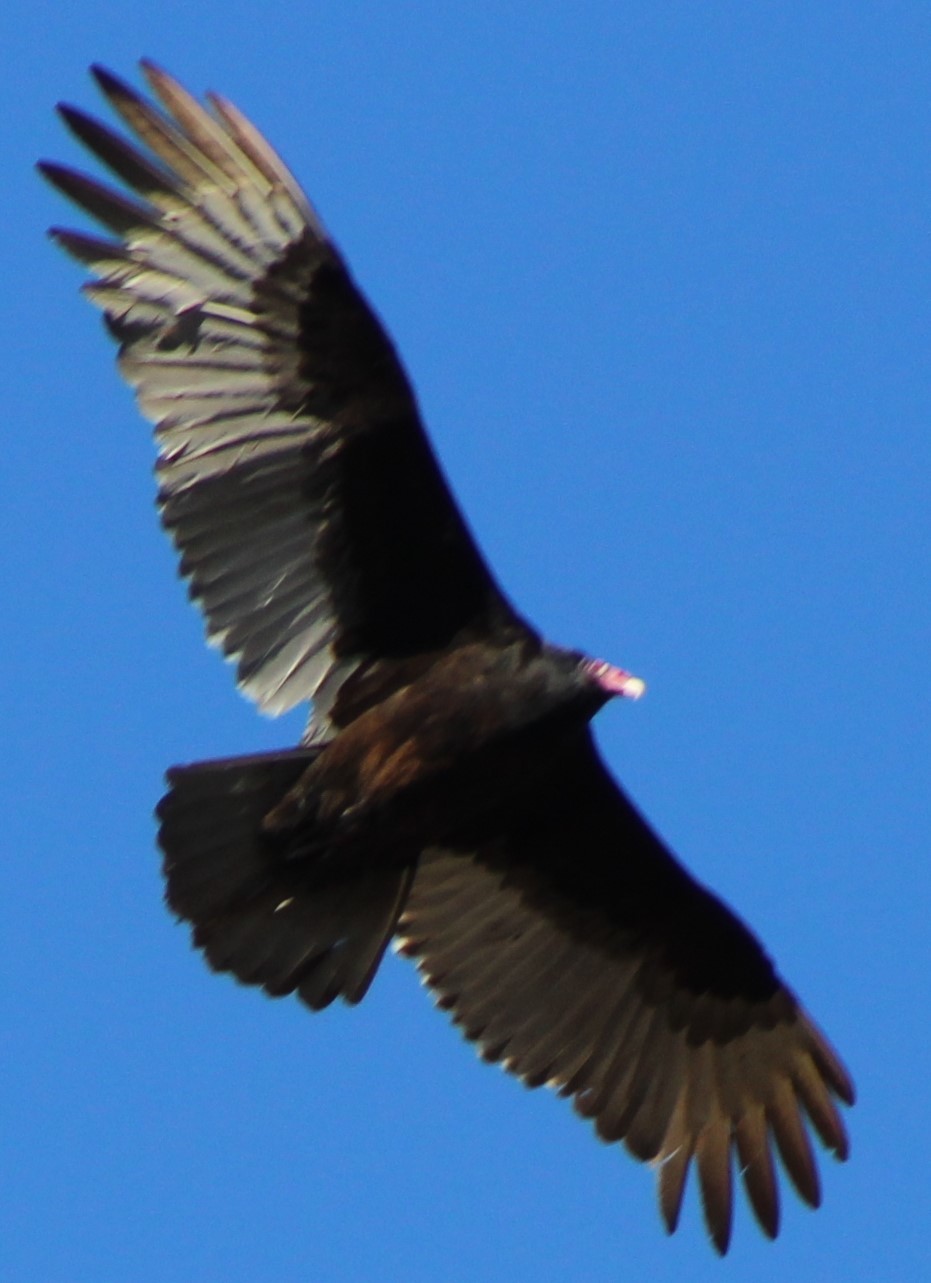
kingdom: Animalia
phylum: Chordata
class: Aves
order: Accipitriformes
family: Cathartidae
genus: Cathartes
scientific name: Cathartes aura
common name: Turkey vulture
